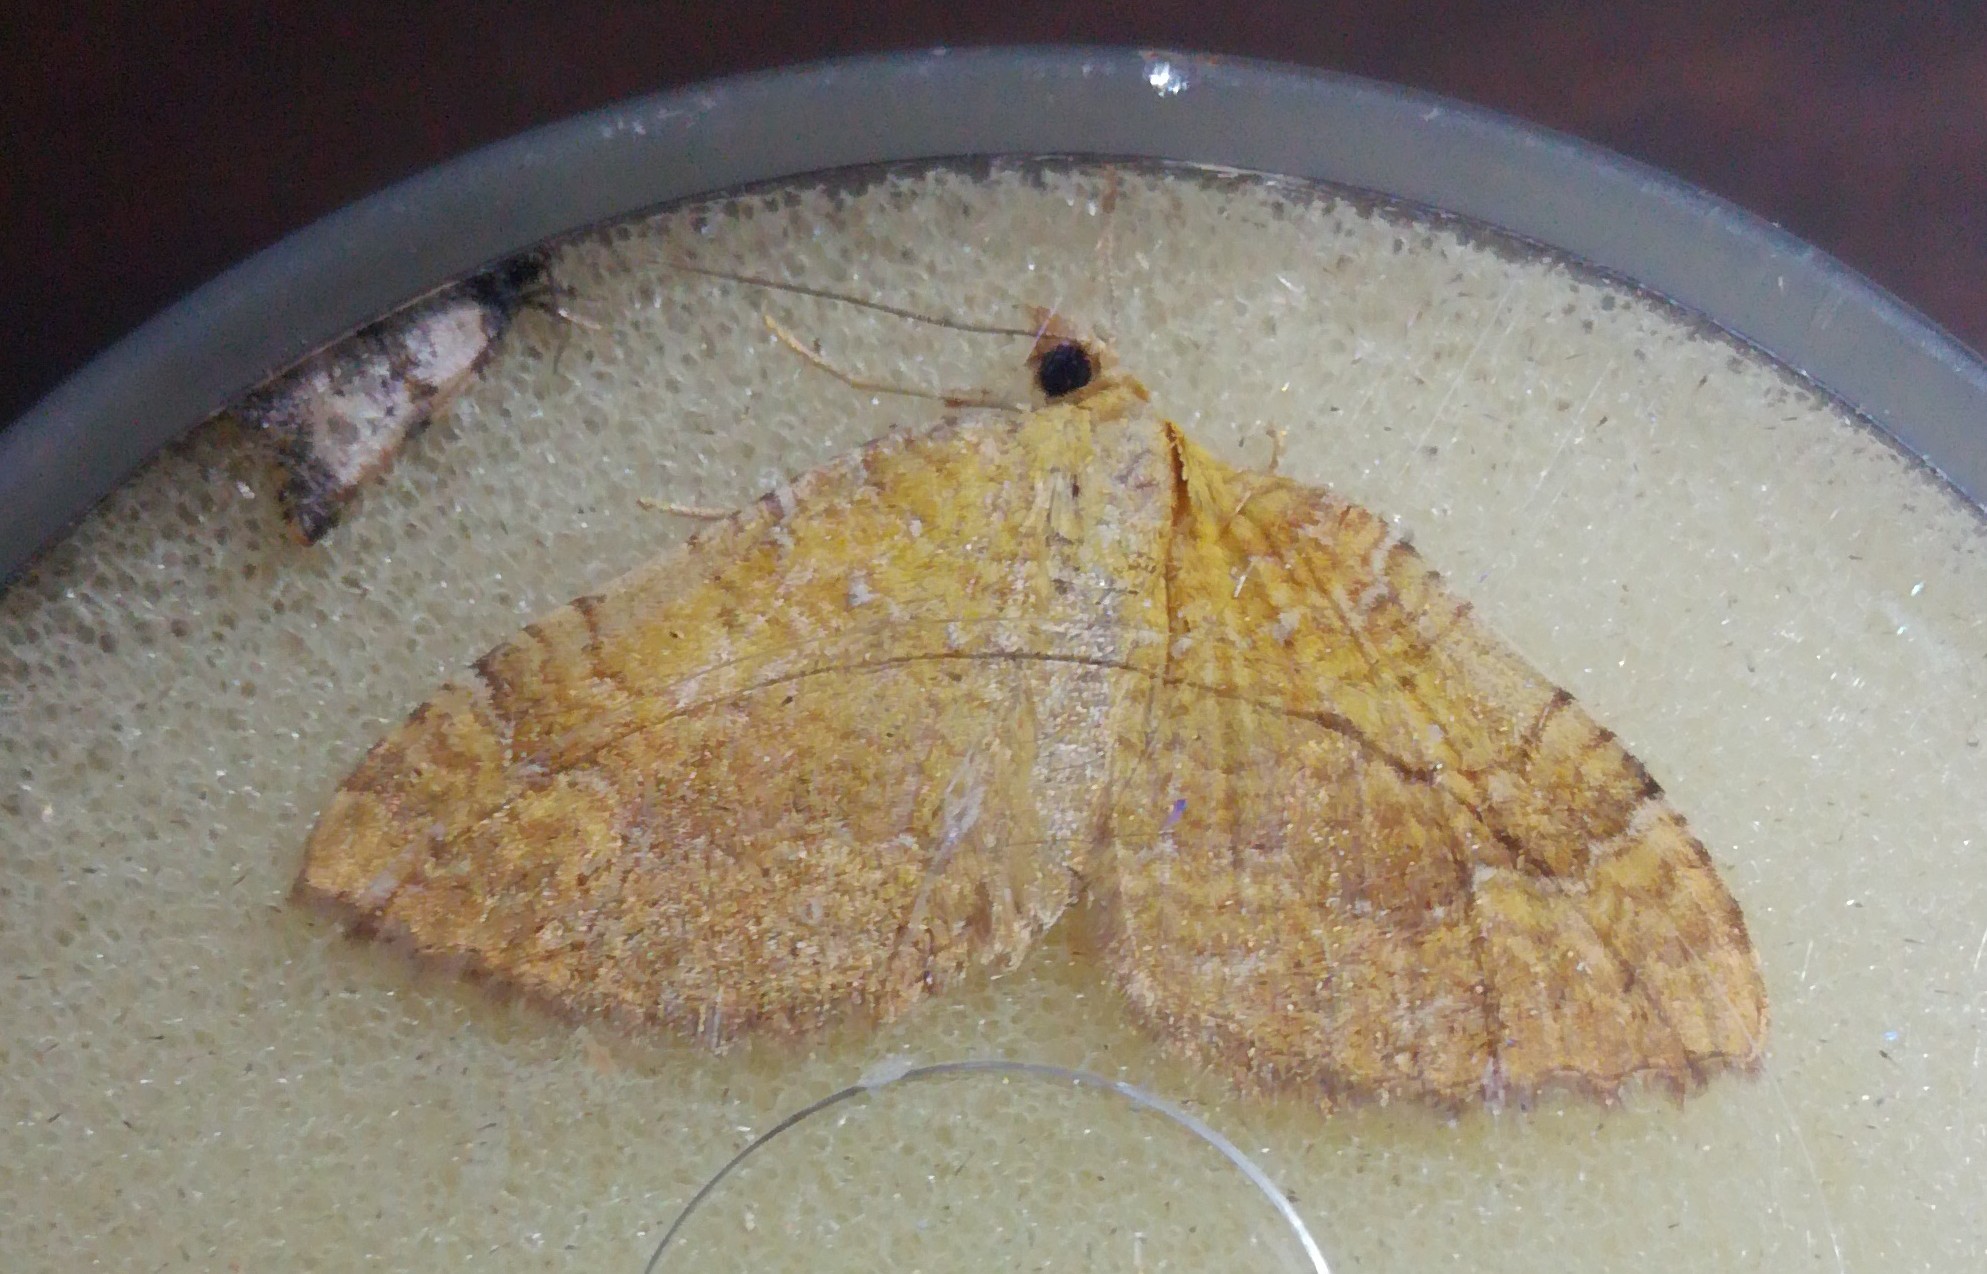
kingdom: Animalia
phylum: Arthropoda
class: Insecta
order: Lepidoptera
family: Geometridae
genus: Camptogramma
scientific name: Camptogramma bilineata
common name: Yellow shell
